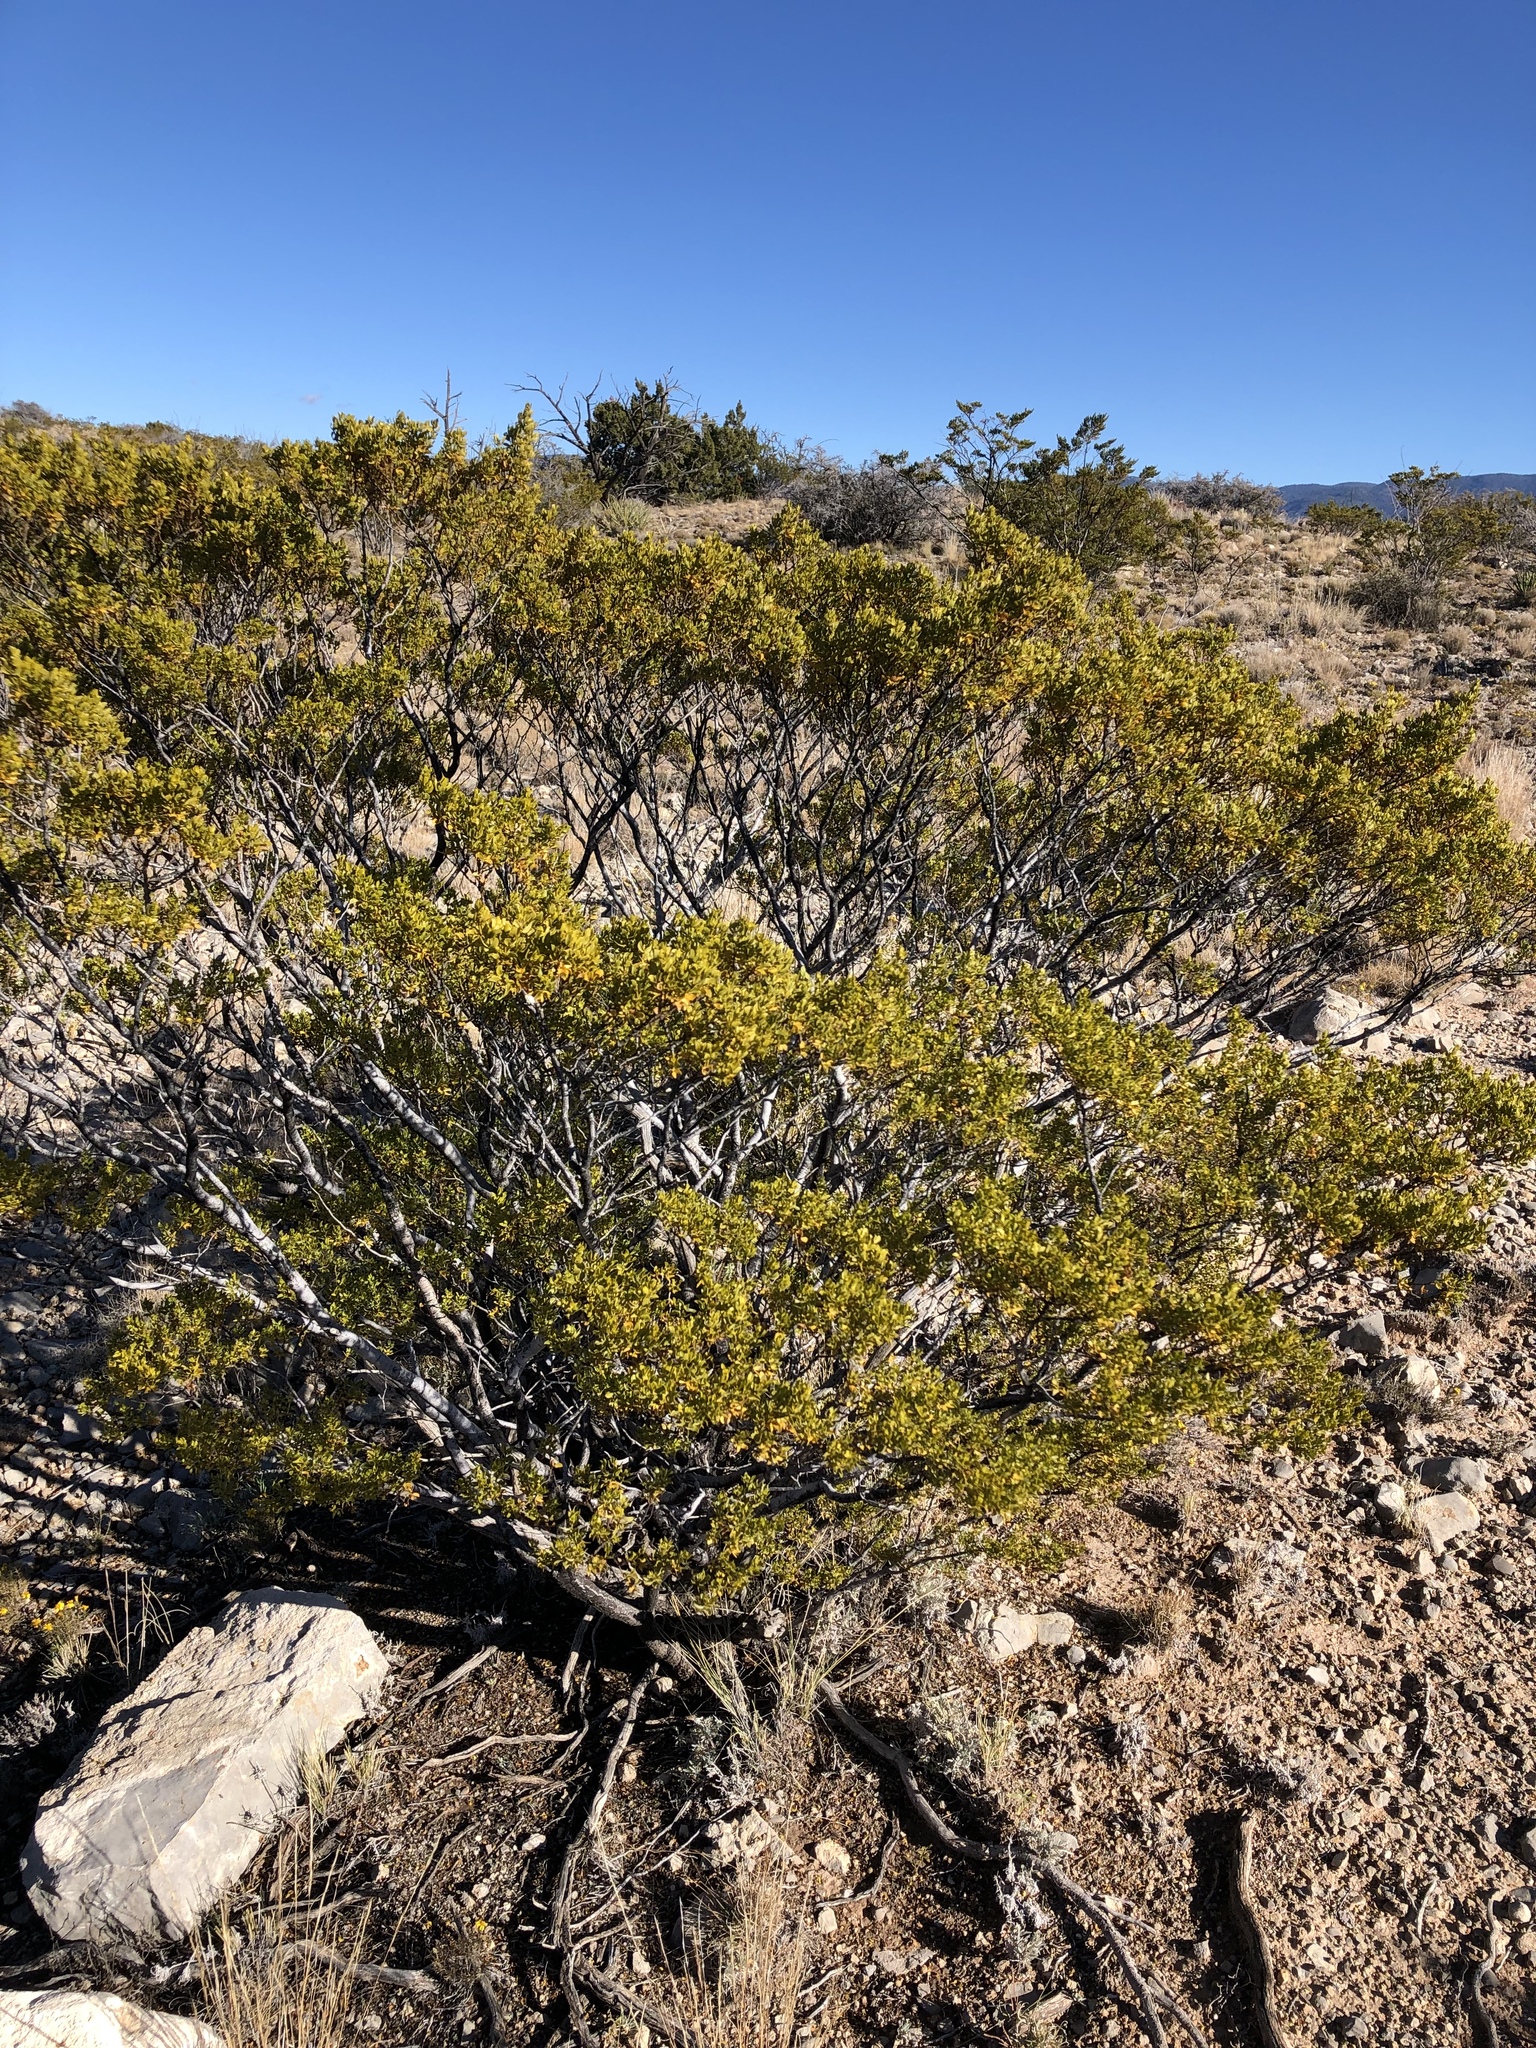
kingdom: Plantae
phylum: Tracheophyta
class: Magnoliopsida
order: Zygophyllales
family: Zygophyllaceae
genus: Larrea
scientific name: Larrea tridentata
